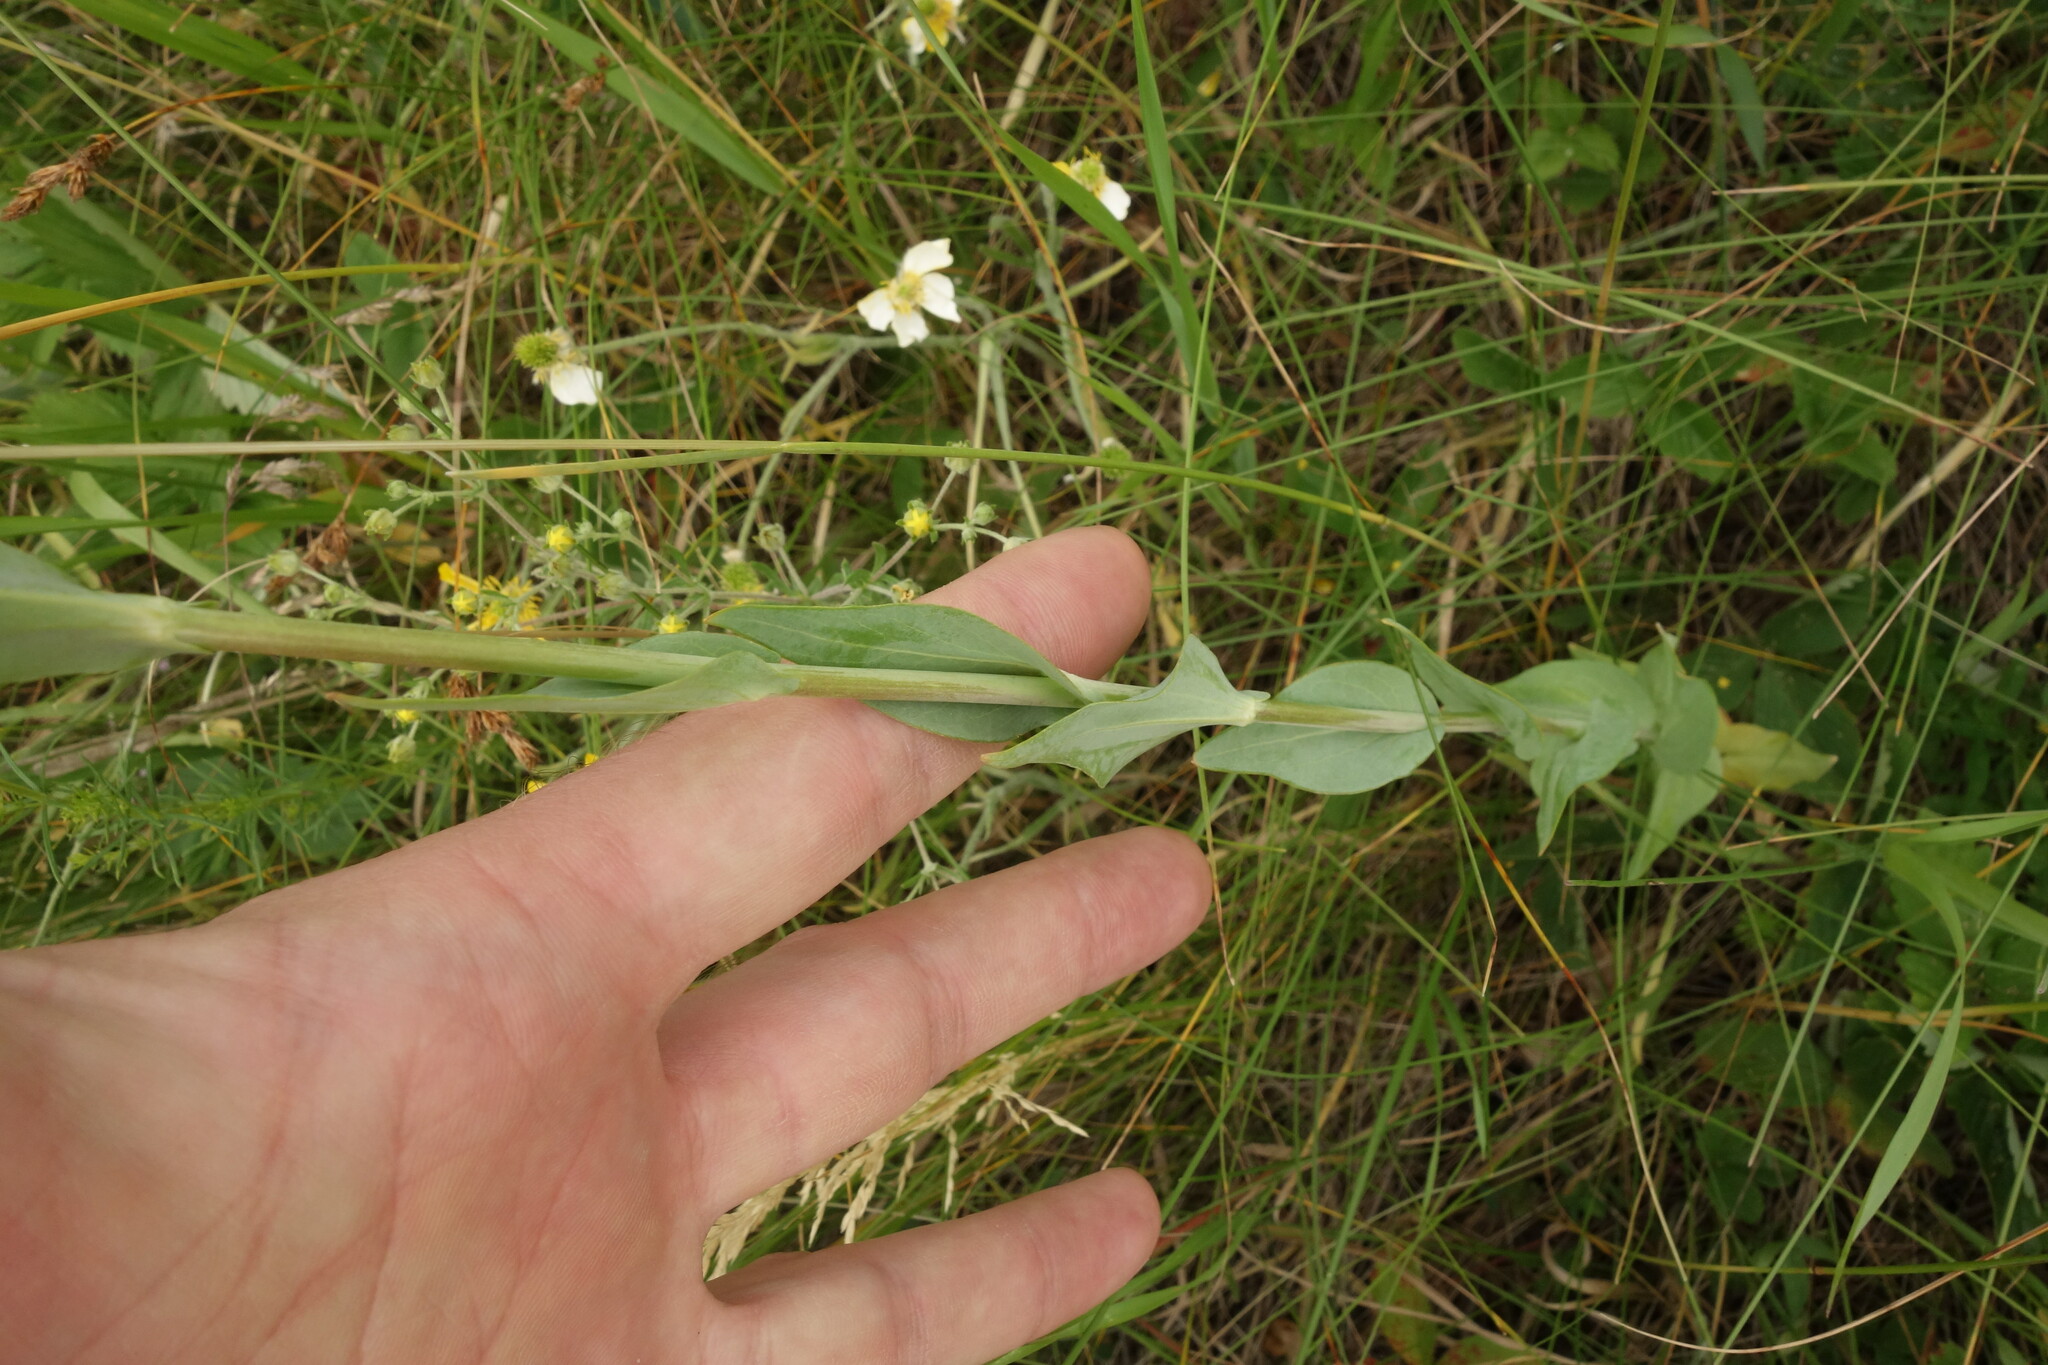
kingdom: Plantae
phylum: Tracheophyta
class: Magnoliopsida
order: Brassicales
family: Brassicaceae
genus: Turritis
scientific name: Turritis glabra
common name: Tower rockcress
